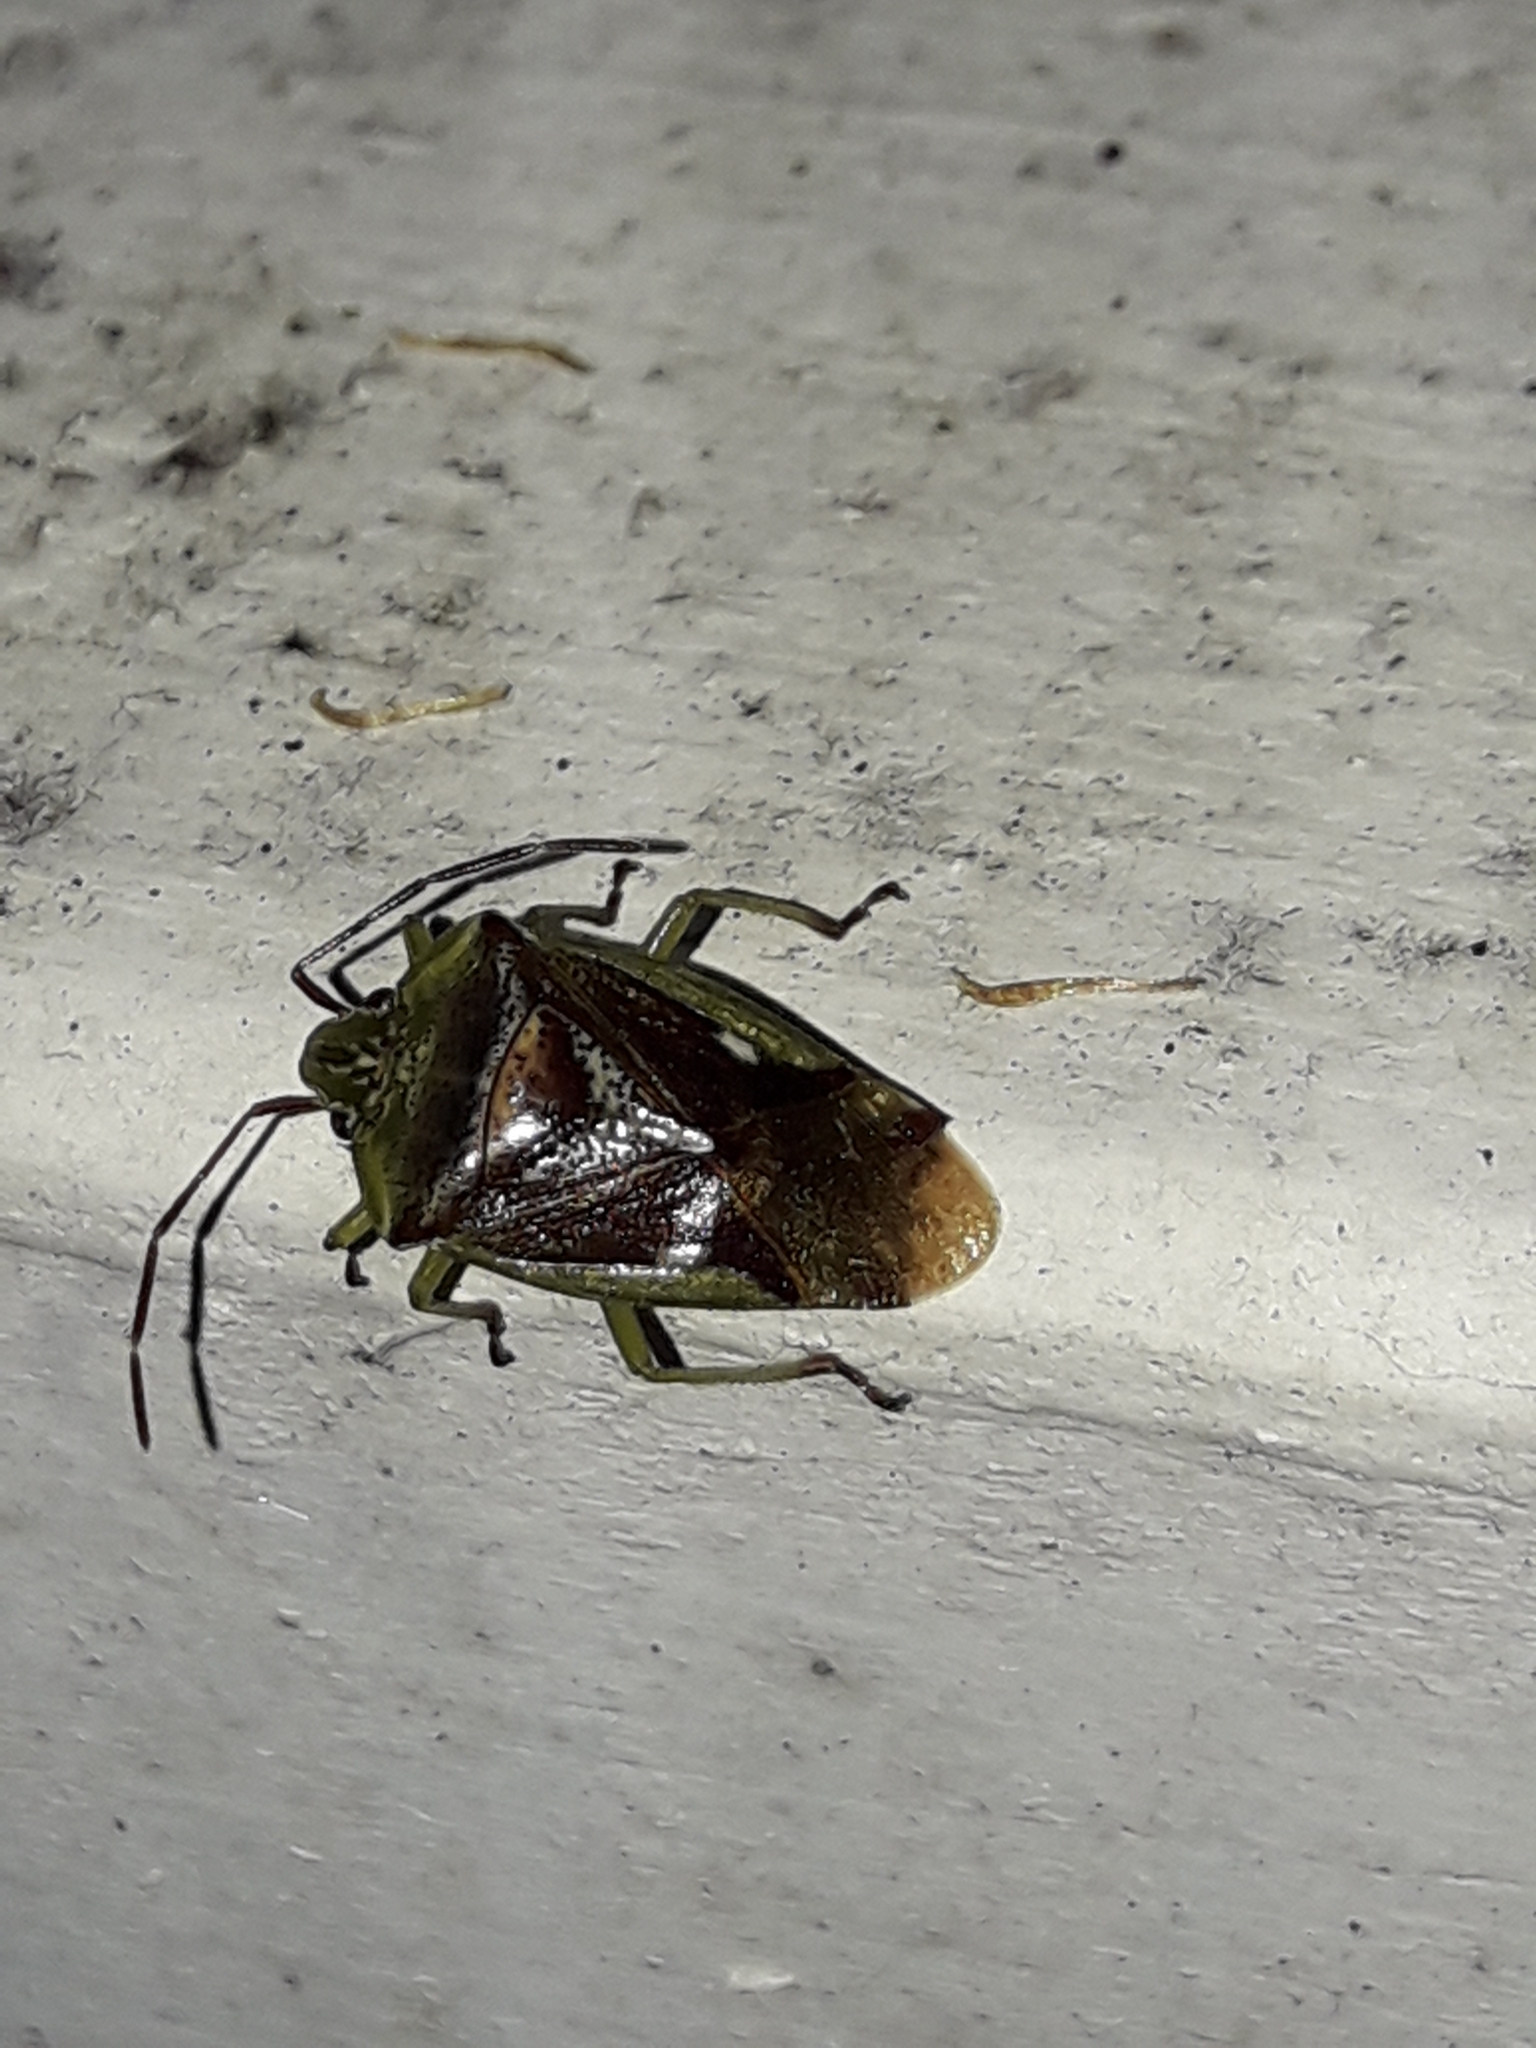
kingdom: Animalia
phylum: Arthropoda
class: Insecta
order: Hemiptera
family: Acanthosomatidae
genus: Oncacontias
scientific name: Oncacontias vittatus
